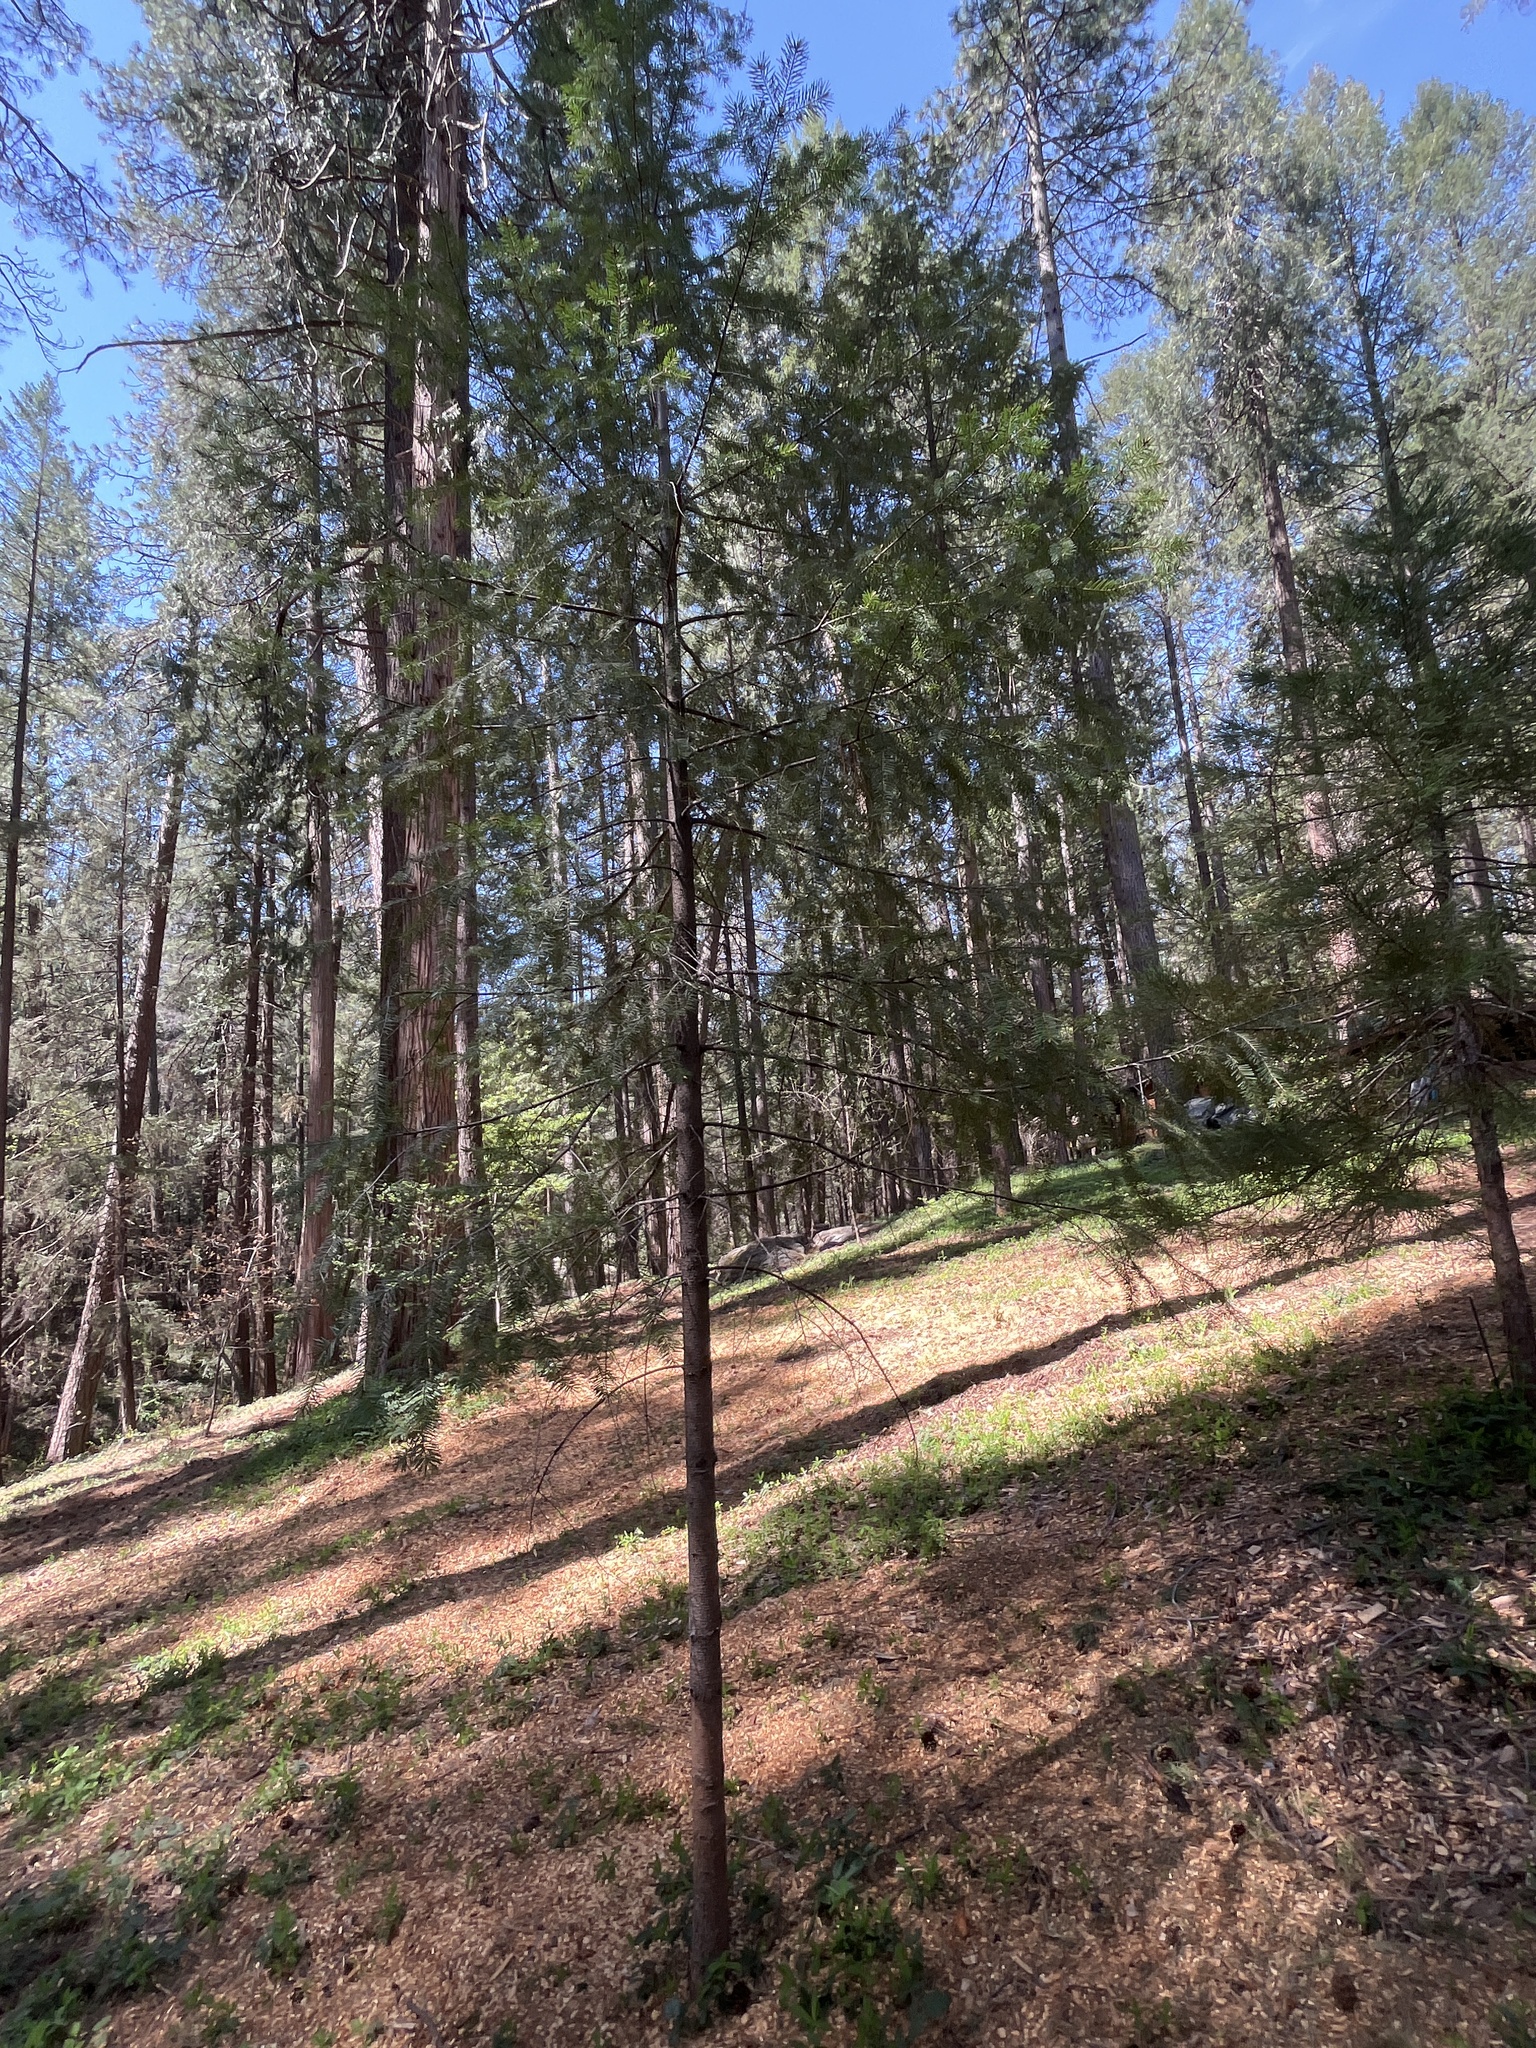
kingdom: Plantae
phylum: Tracheophyta
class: Pinopsida
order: Pinales
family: Pinaceae
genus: Pseudotsuga
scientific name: Pseudotsuga menziesii
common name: Douglas fir
